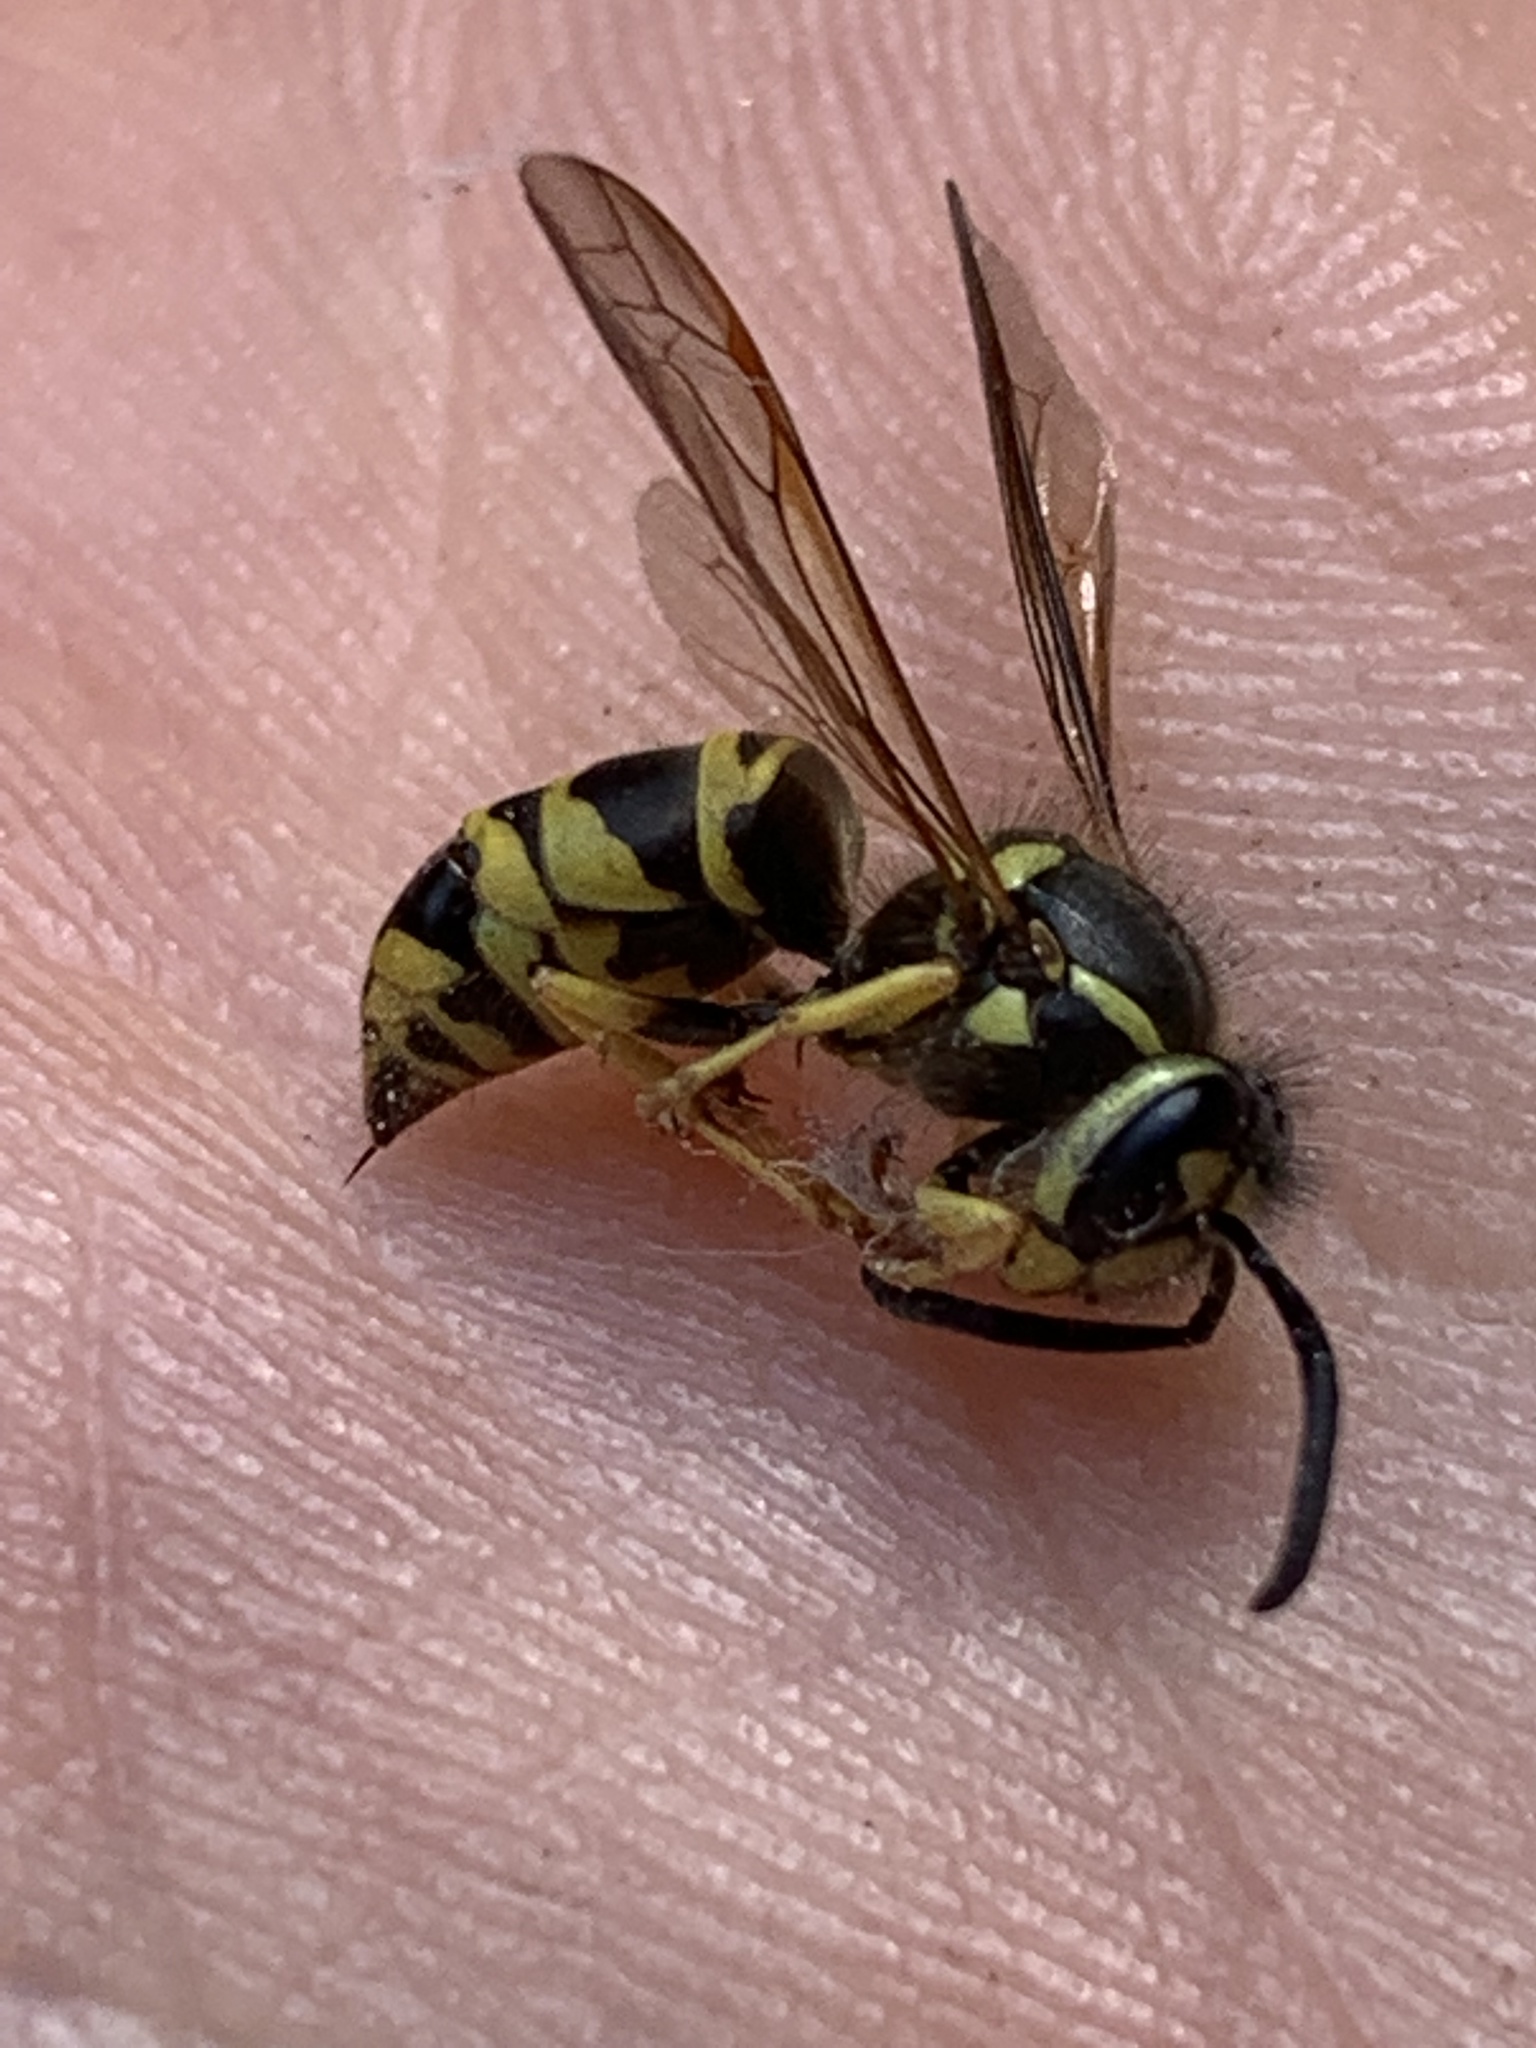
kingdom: Animalia
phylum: Arthropoda
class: Insecta
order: Hymenoptera
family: Vespidae
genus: Vespula
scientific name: Vespula maculifrons
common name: Eastern yellowjacket
